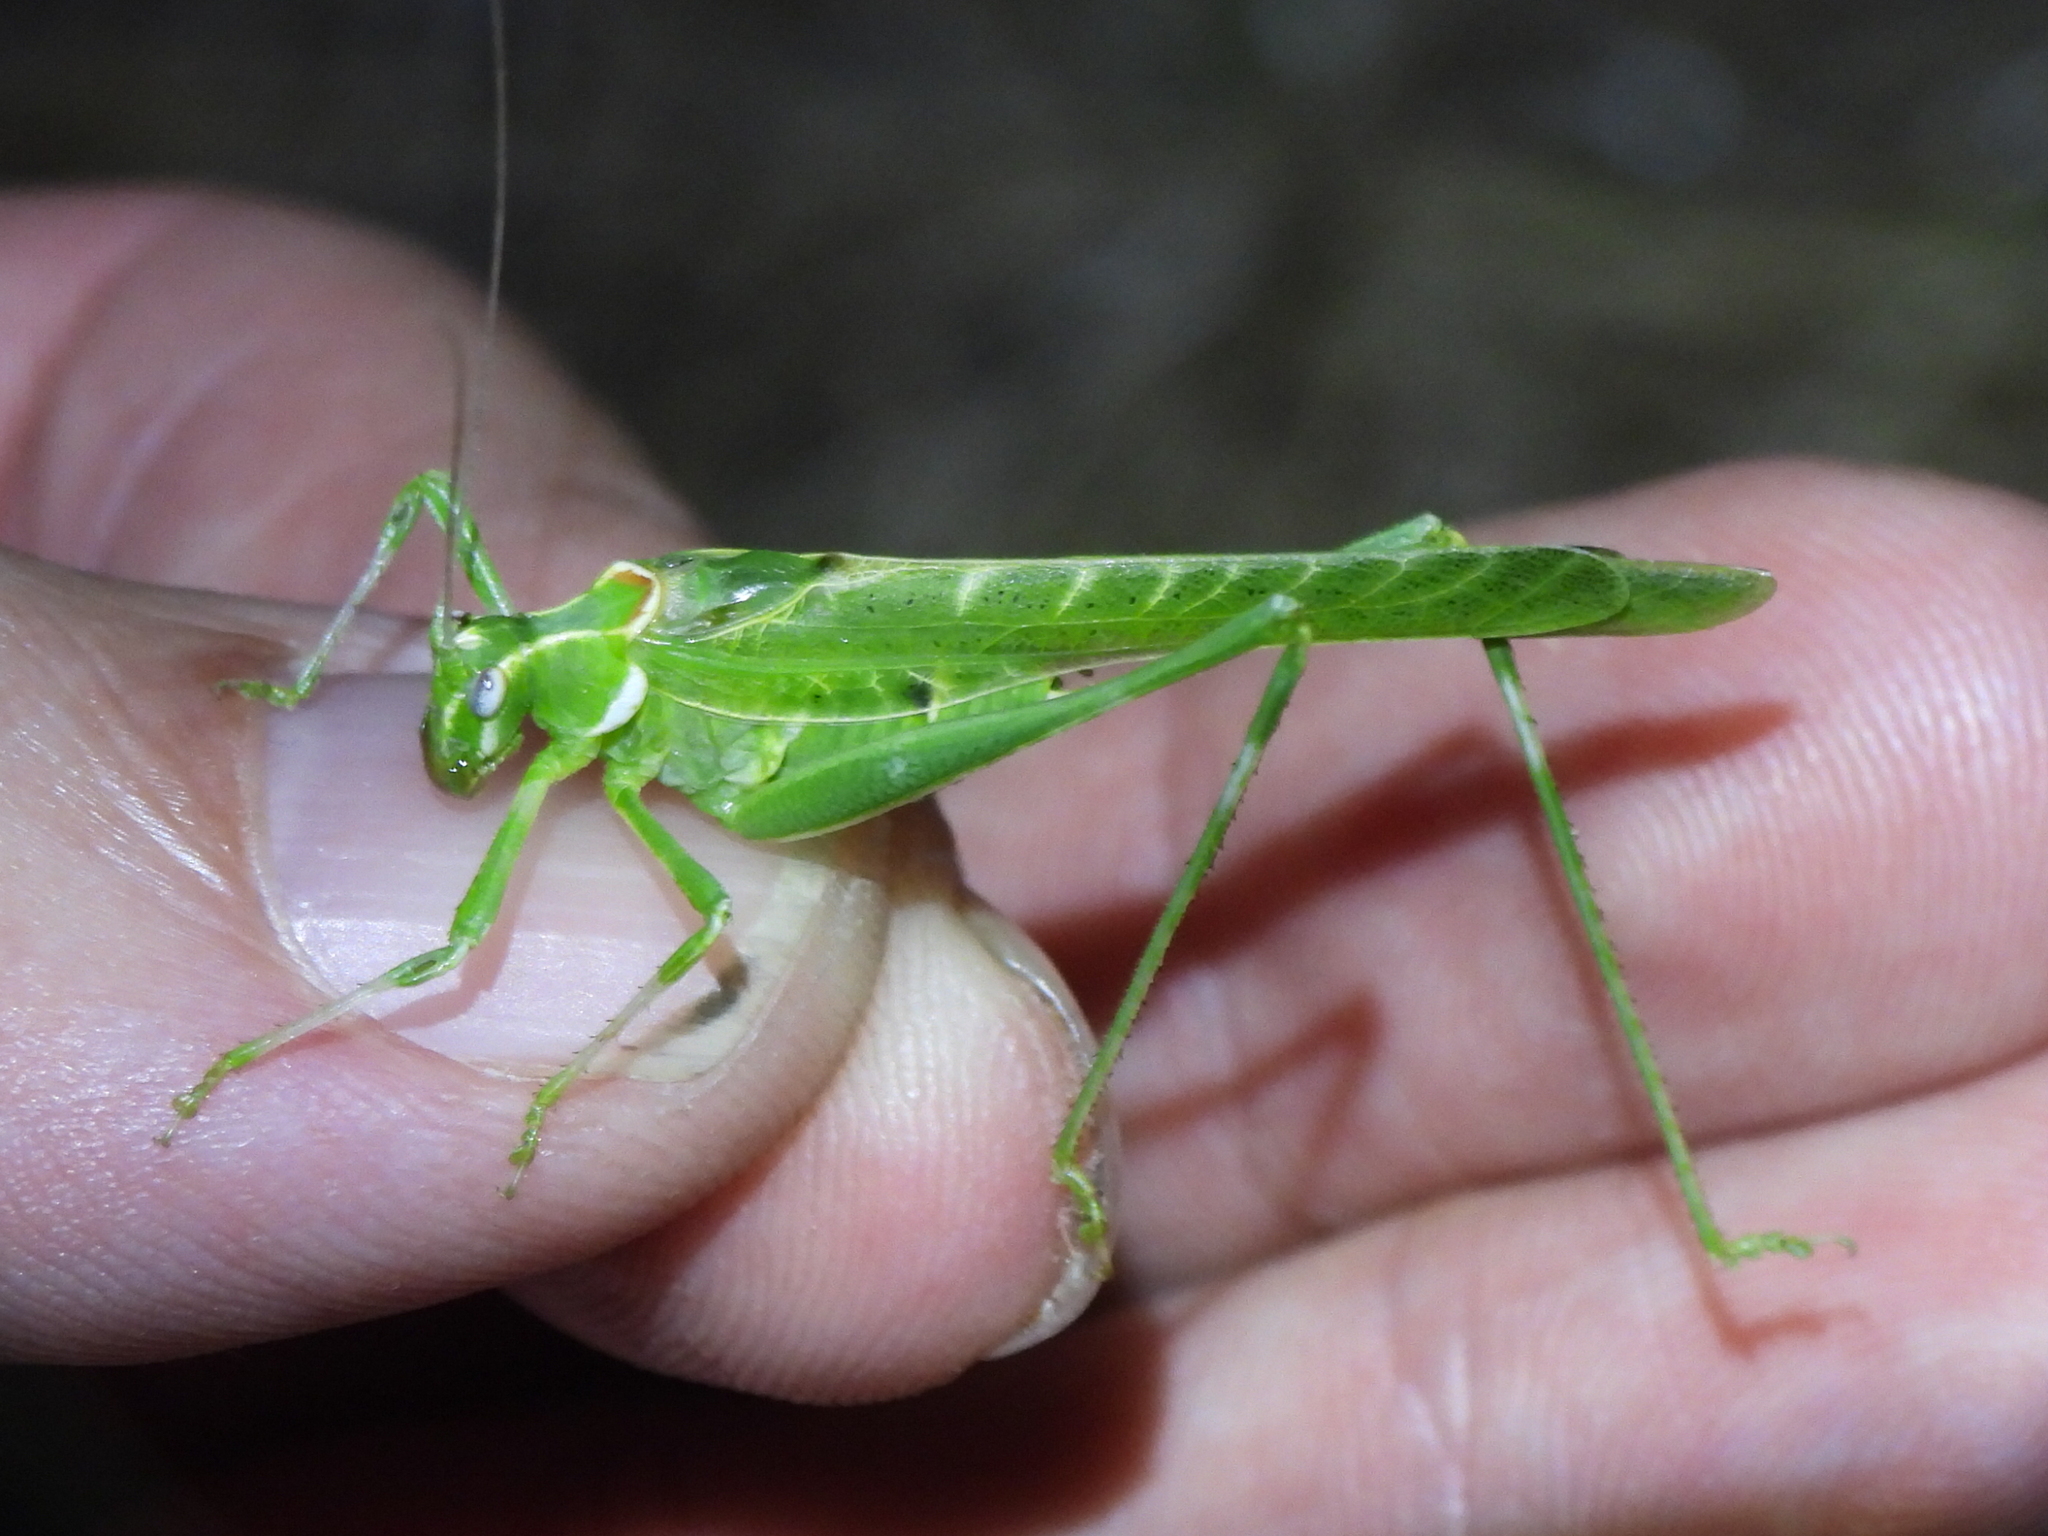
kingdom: Animalia
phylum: Arthropoda
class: Insecta
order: Orthoptera
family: Tettigoniidae
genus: Insara
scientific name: Insara elegans
